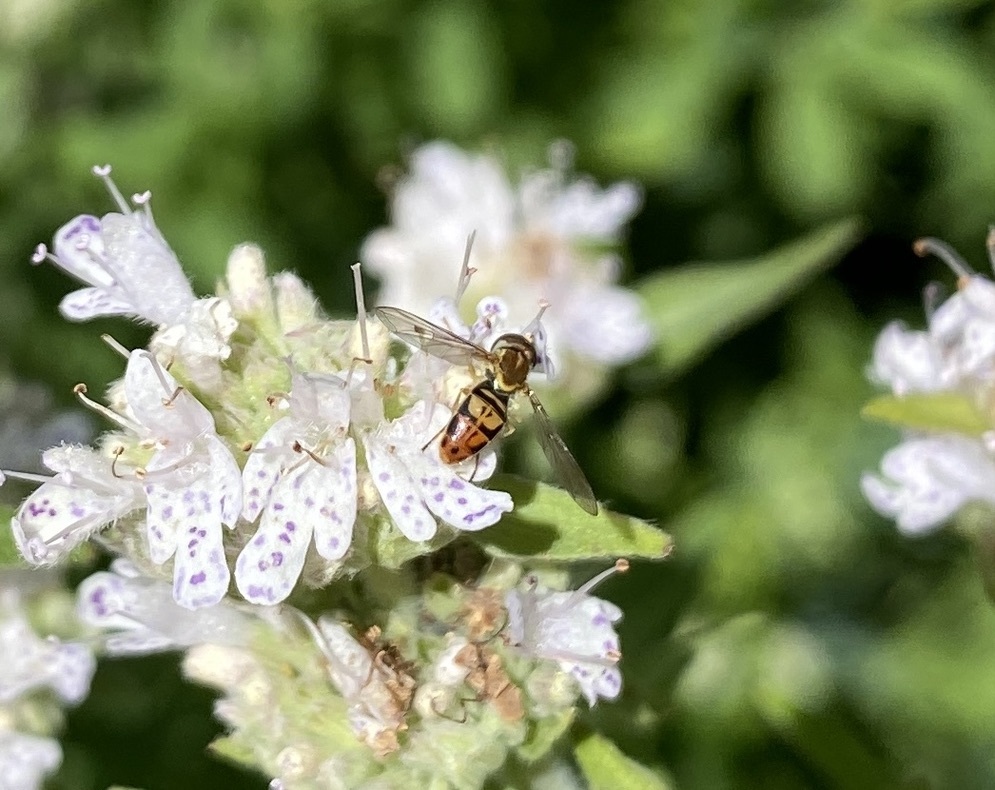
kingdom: Animalia
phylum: Arthropoda
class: Insecta
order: Diptera
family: Syrphidae
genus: Toxomerus
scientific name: Toxomerus marginatus
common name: Syrphid fly
